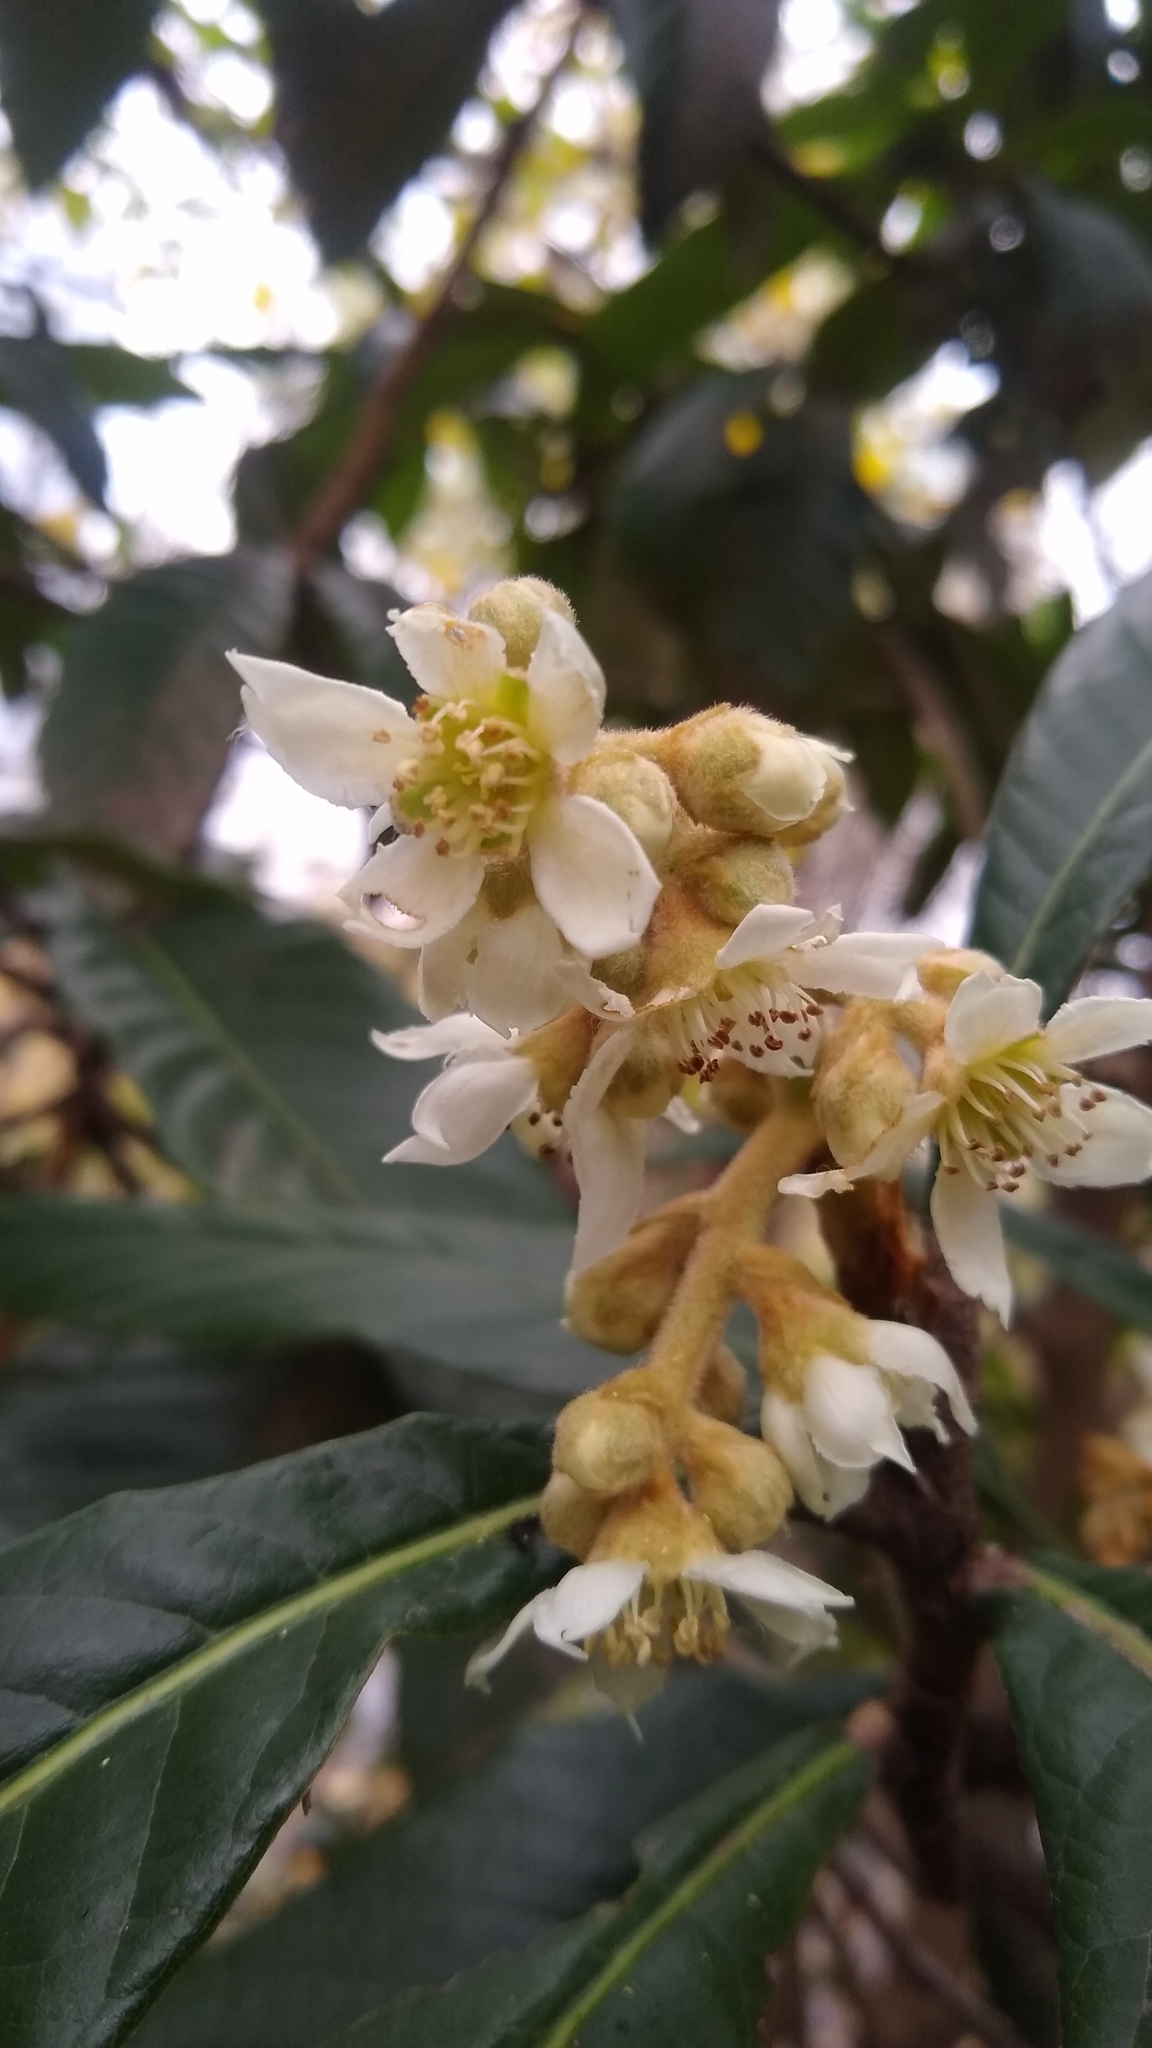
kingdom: Plantae
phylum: Tracheophyta
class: Magnoliopsida
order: Rosales
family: Rosaceae
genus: Rhaphiolepis
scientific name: Rhaphiolepis bibas
